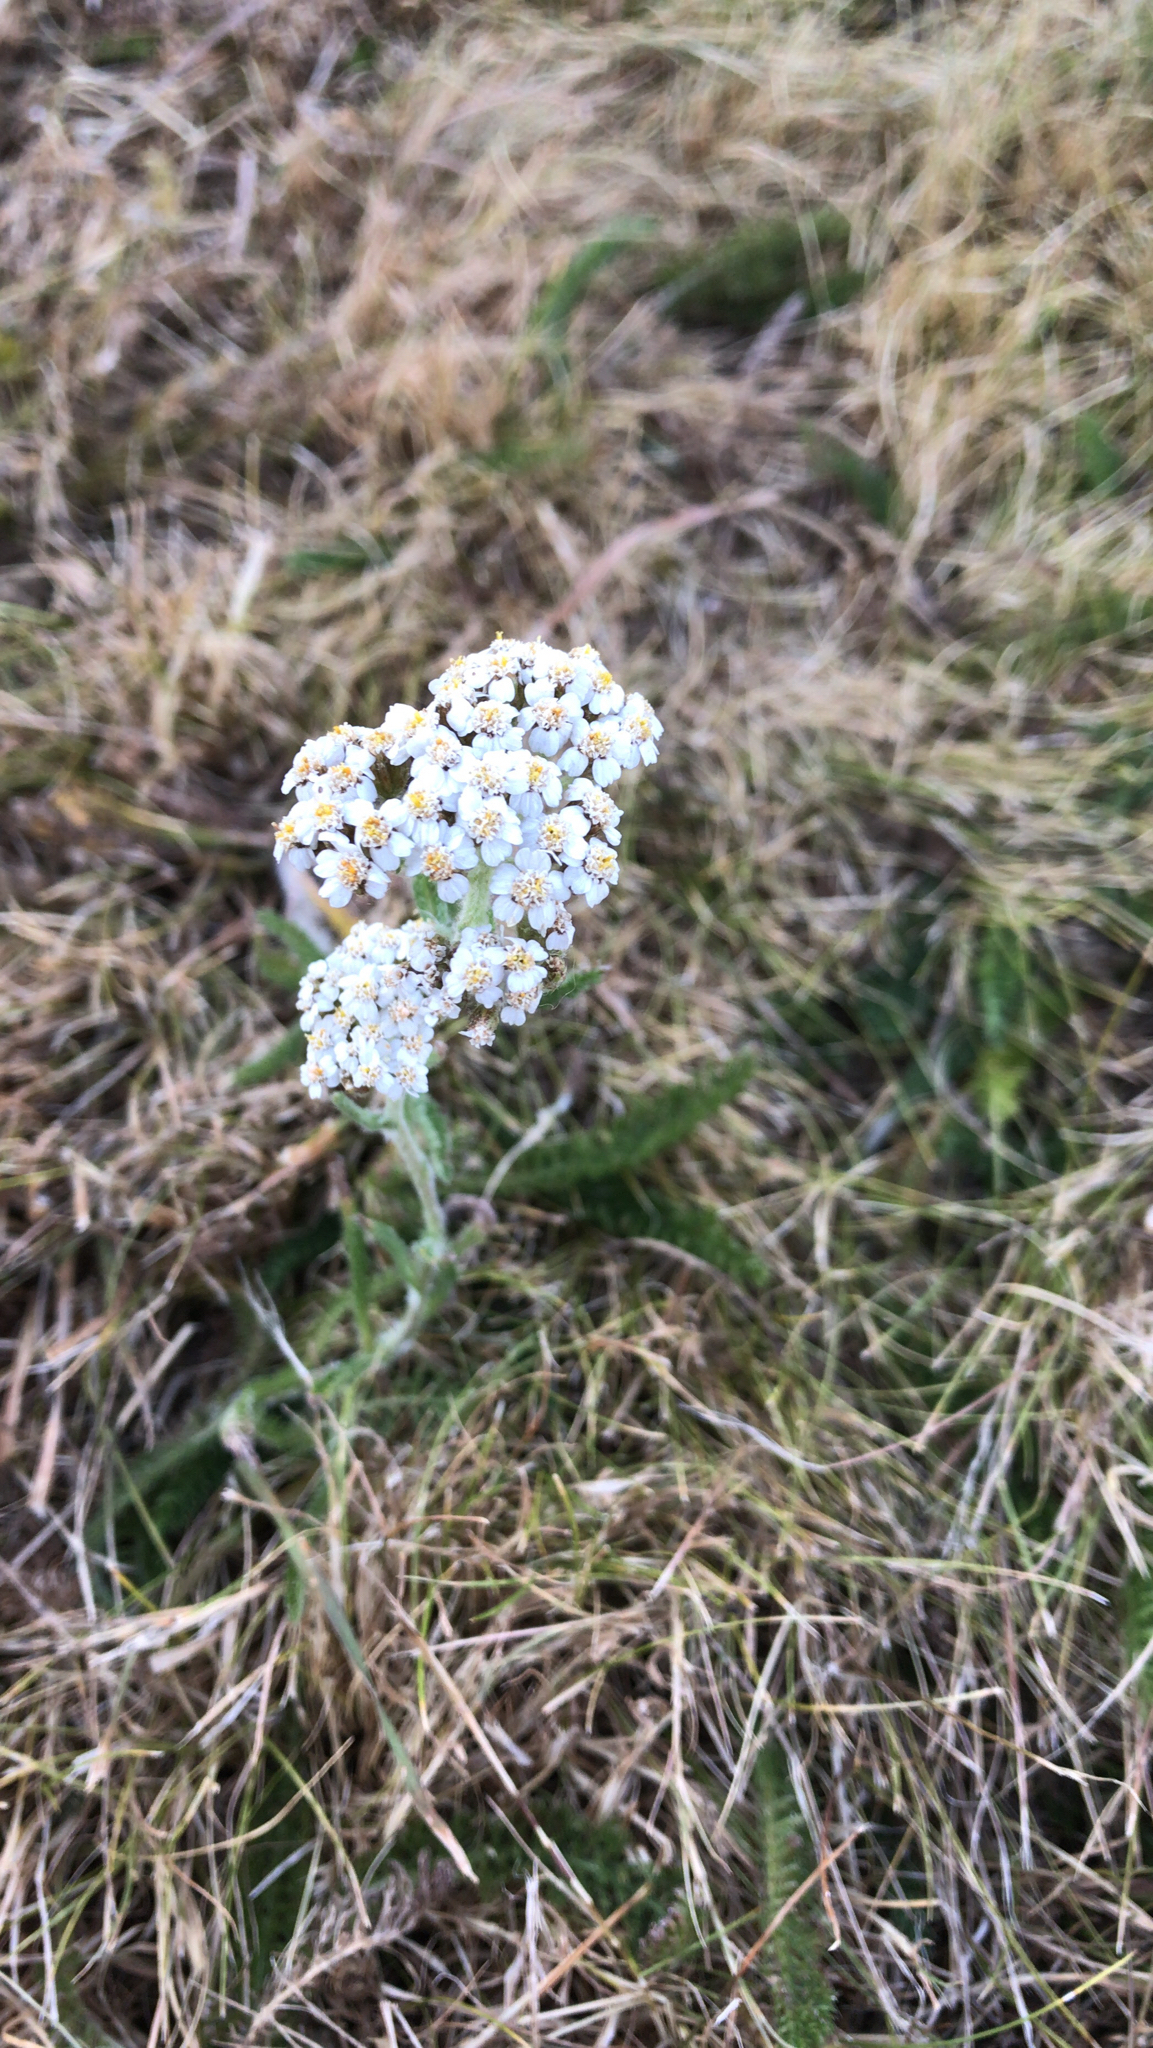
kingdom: Plantae
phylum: Tracheophyta
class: Magnoliopsida
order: Asterales
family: Asteraceae
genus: Achillea
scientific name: Achillea millefolium
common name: Yarrow
